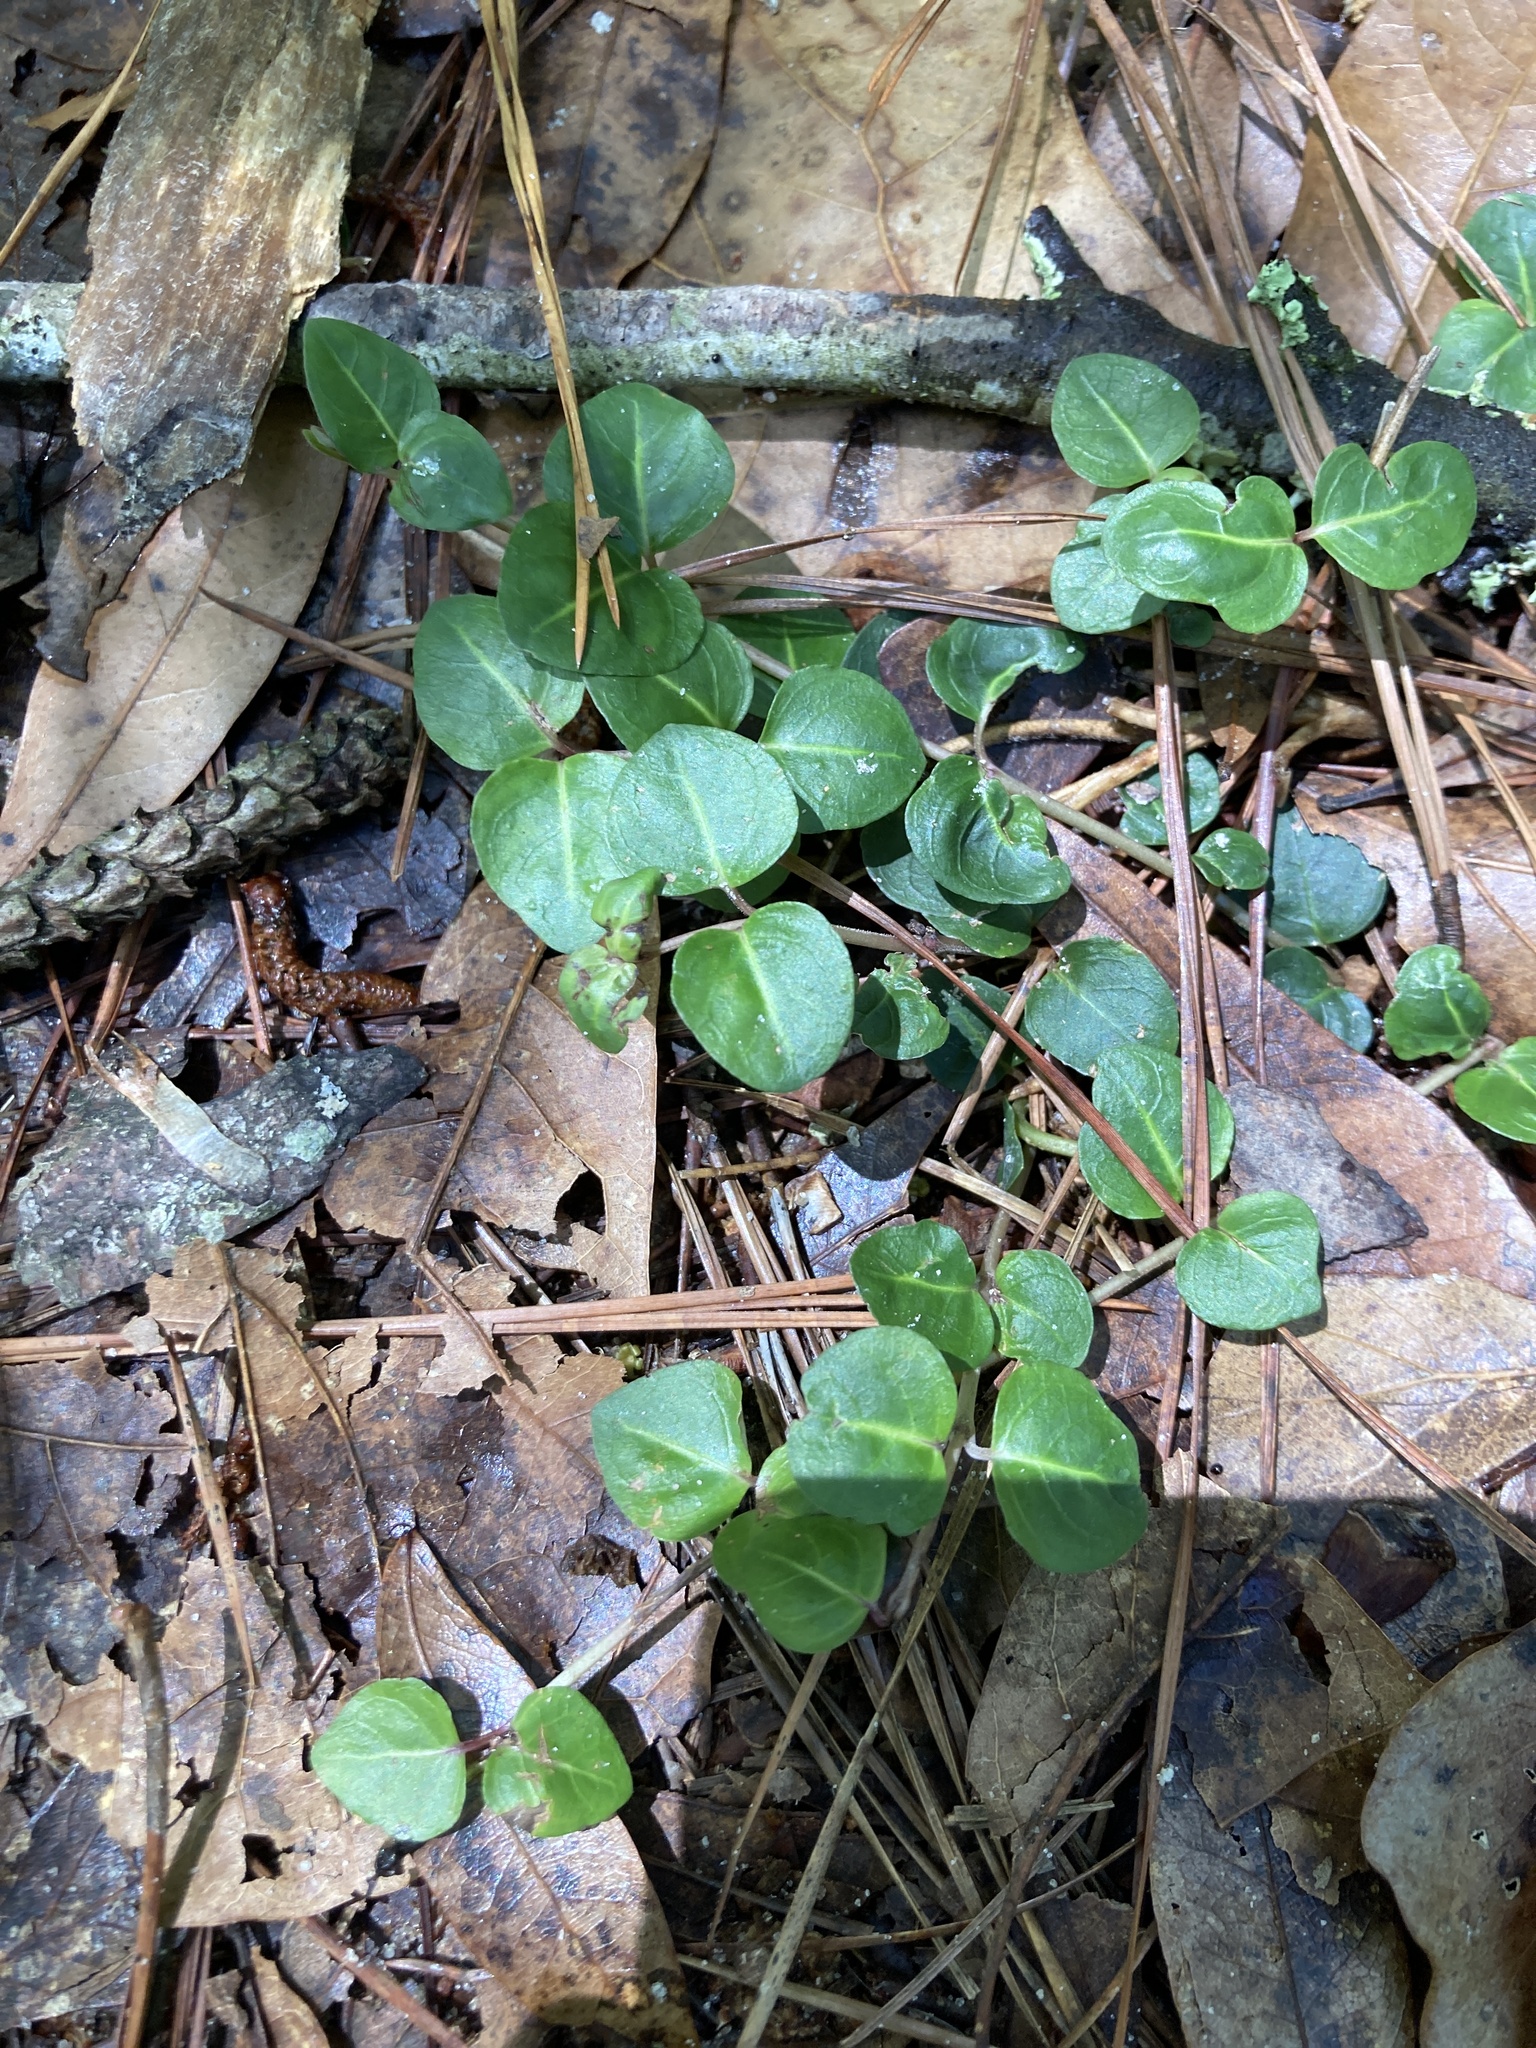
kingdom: Plantae
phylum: Tracheophyta
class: Magnoliopsida
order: Gentianales
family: Rubiaceae
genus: Mitchella
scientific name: Mitchella repens
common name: Partridge-berry
